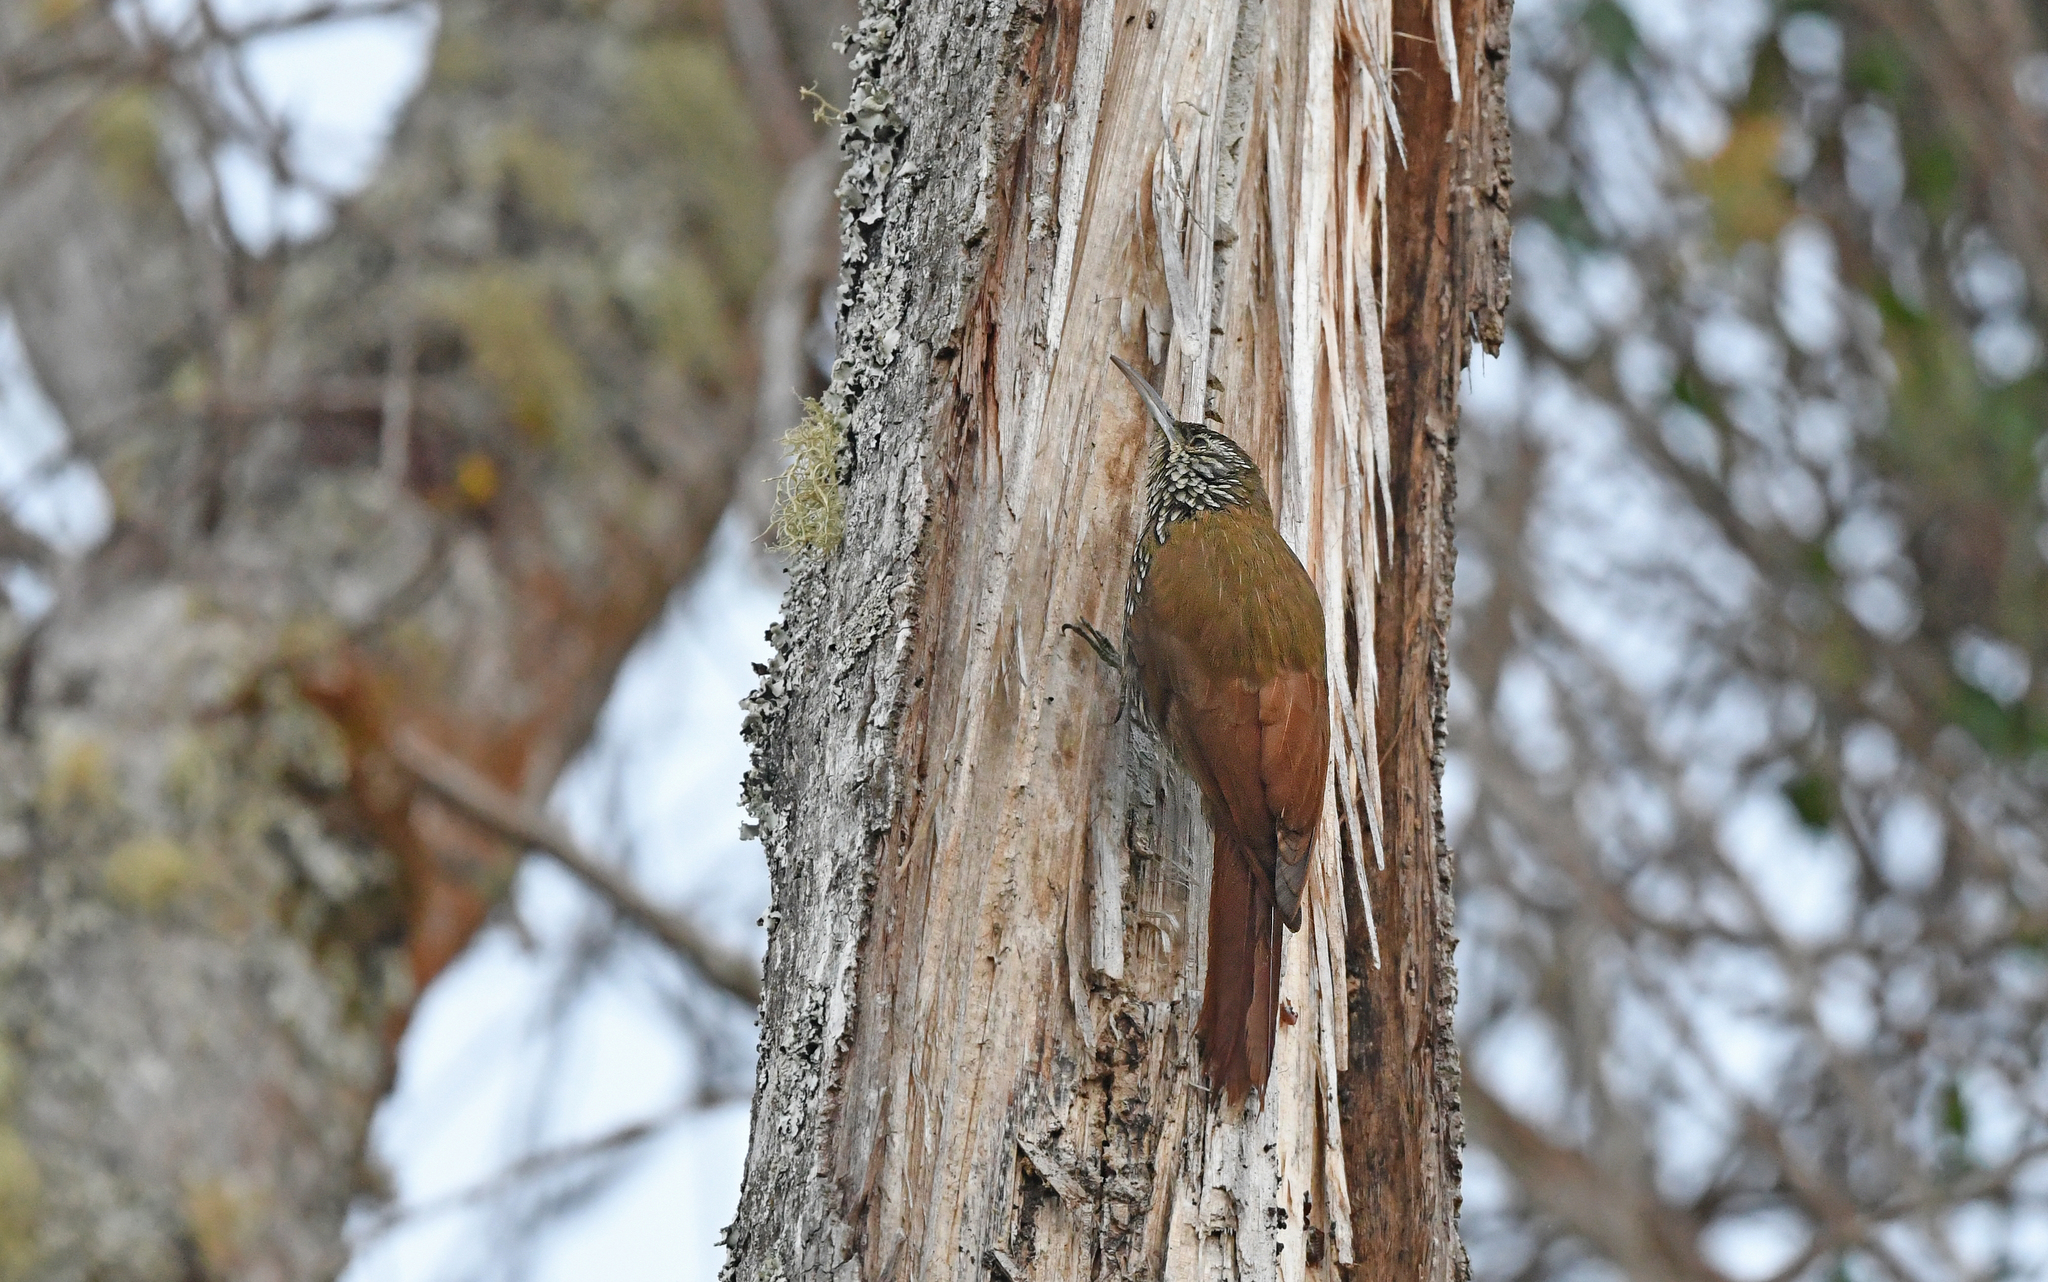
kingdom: Animalia
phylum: Chordata
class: Aves
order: Passeriformes
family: Furnariidae
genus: Lepidocolaptes
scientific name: Lepidocolaptes lacrymiger
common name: Montane woodcreeper
